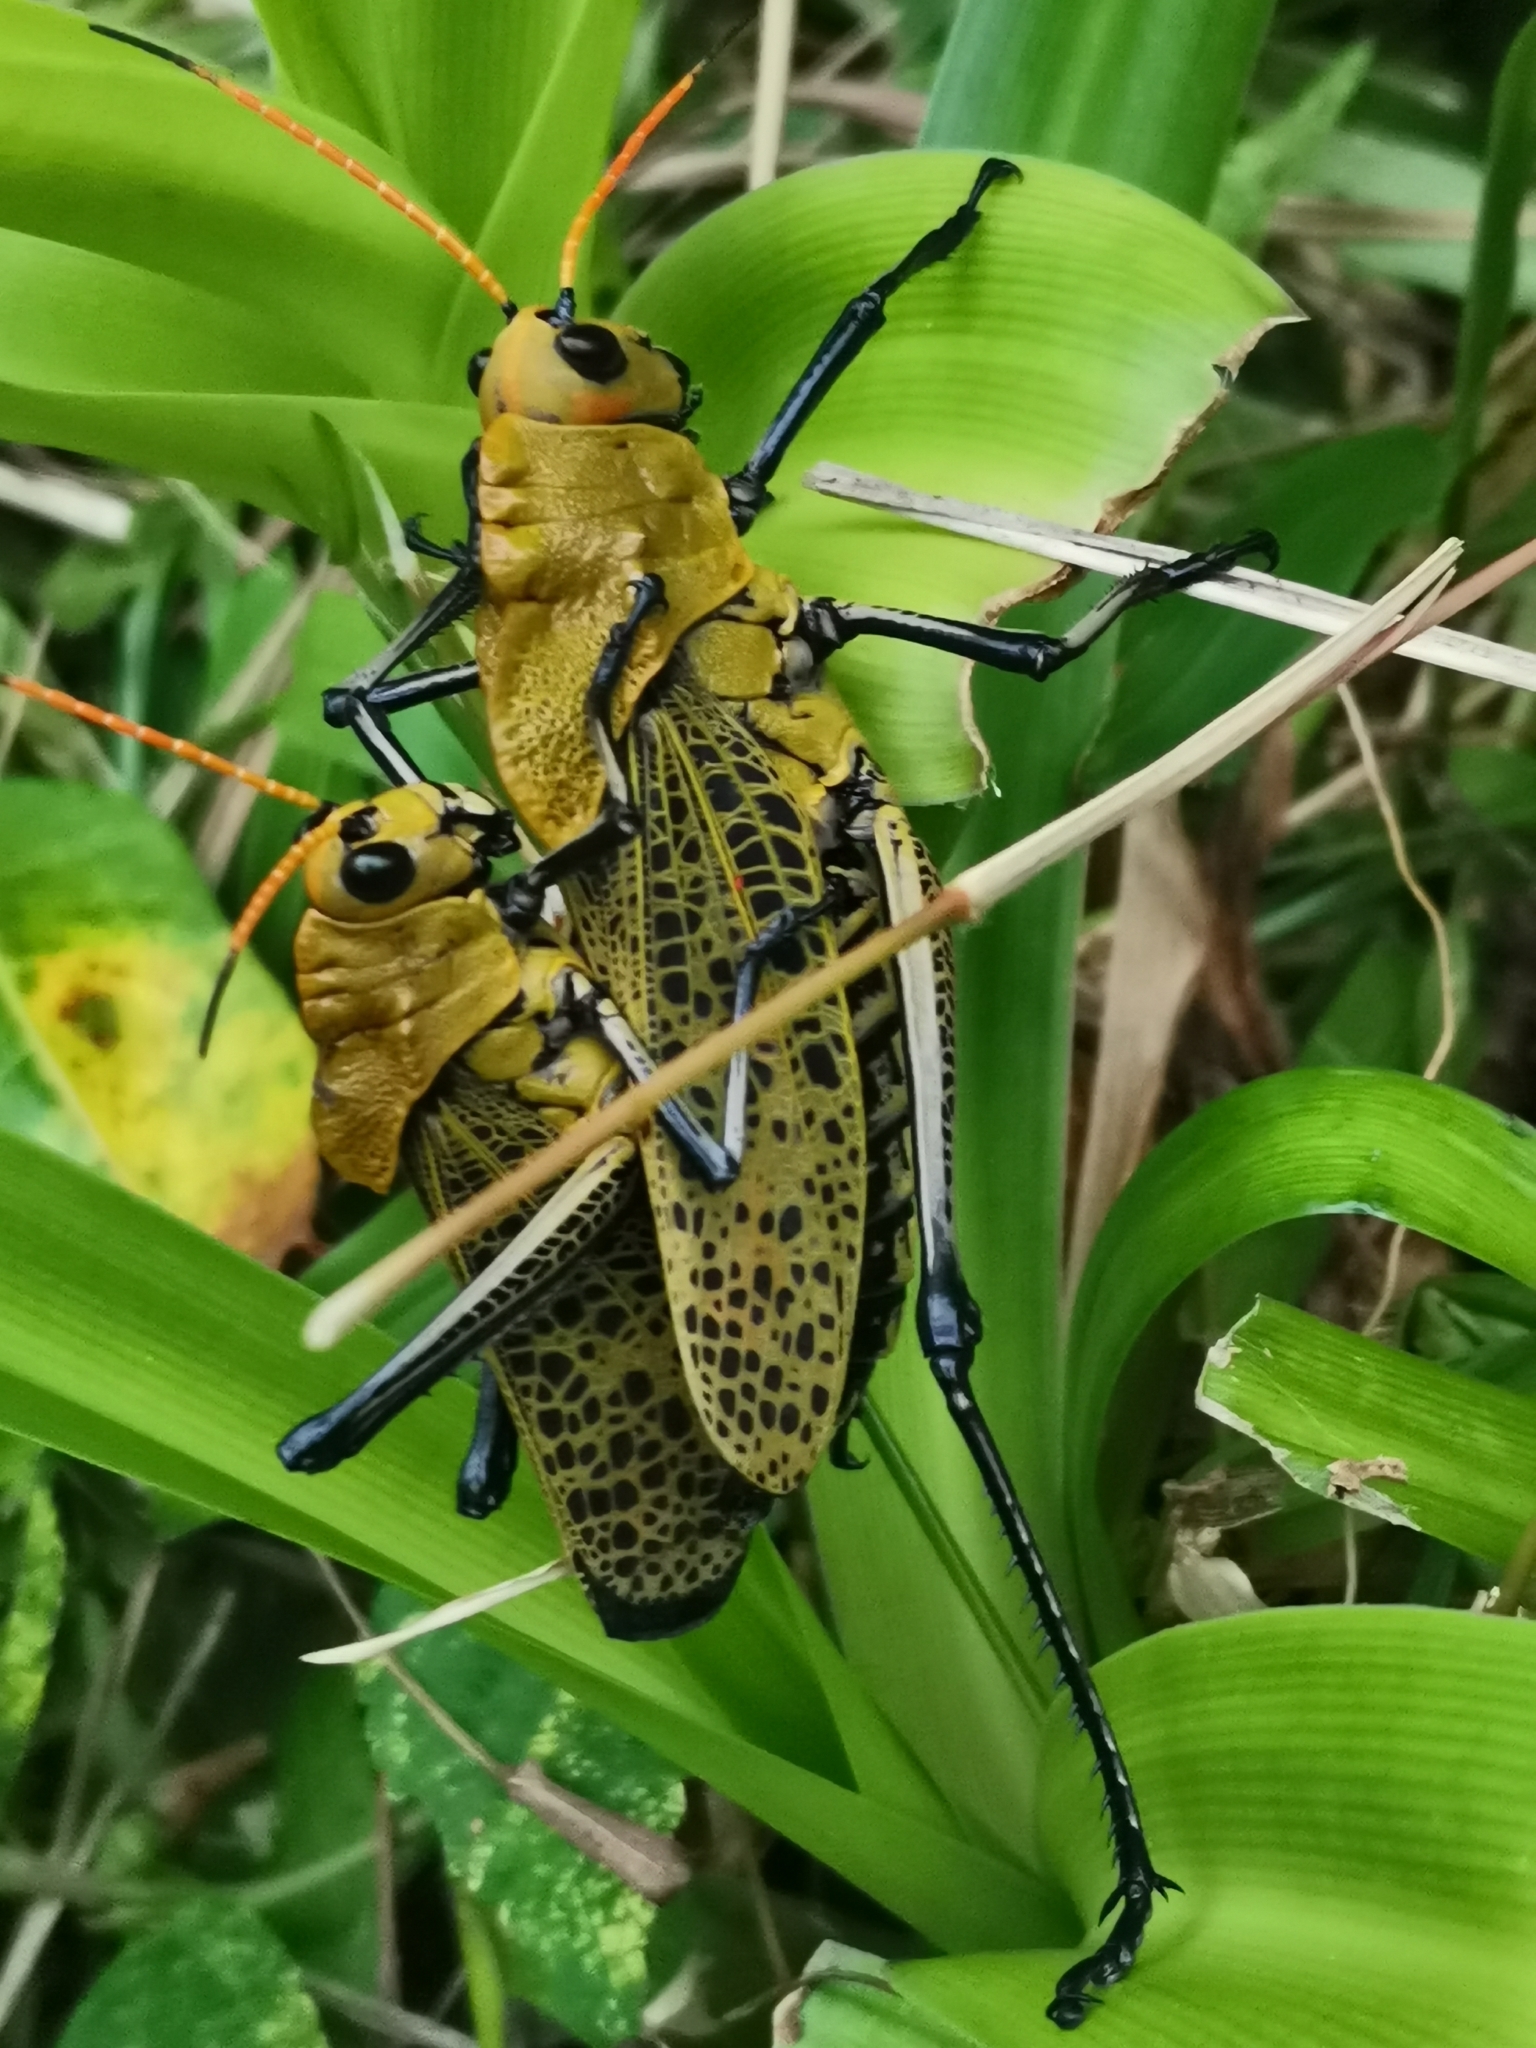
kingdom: Animalia
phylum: Arthropoda
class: Insecta
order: Orthoptera
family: Romaleidae
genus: Romalea
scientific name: Romalea
